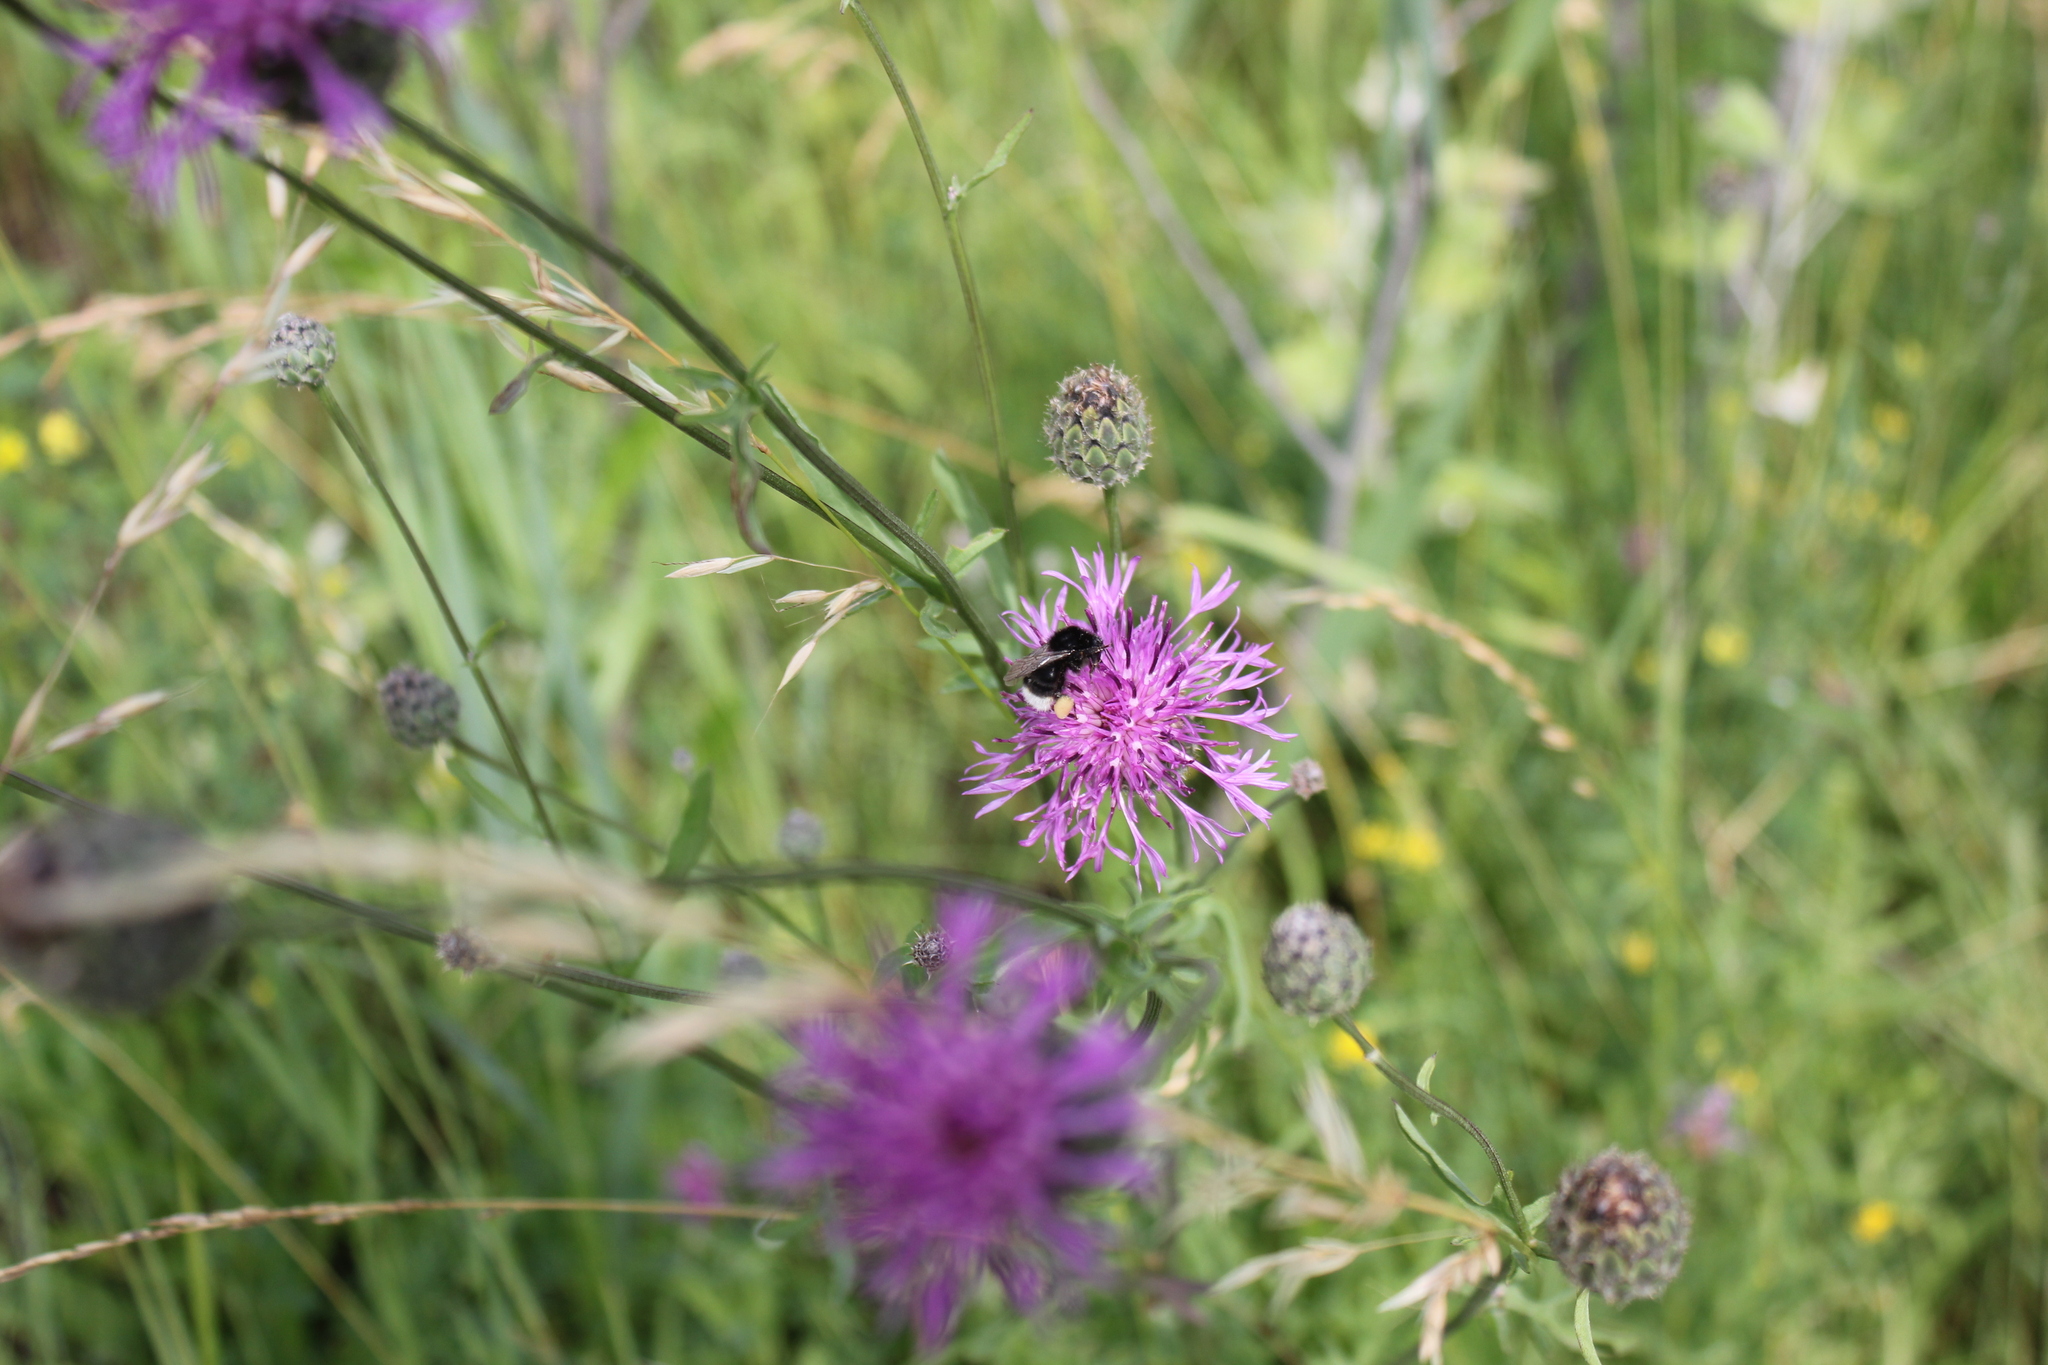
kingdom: Animalia
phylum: Arthropoda
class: Insecta
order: Hymenoptera
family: Apidae
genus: Bombus
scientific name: Bombus soroeensis
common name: Broken-belted humble-bee
